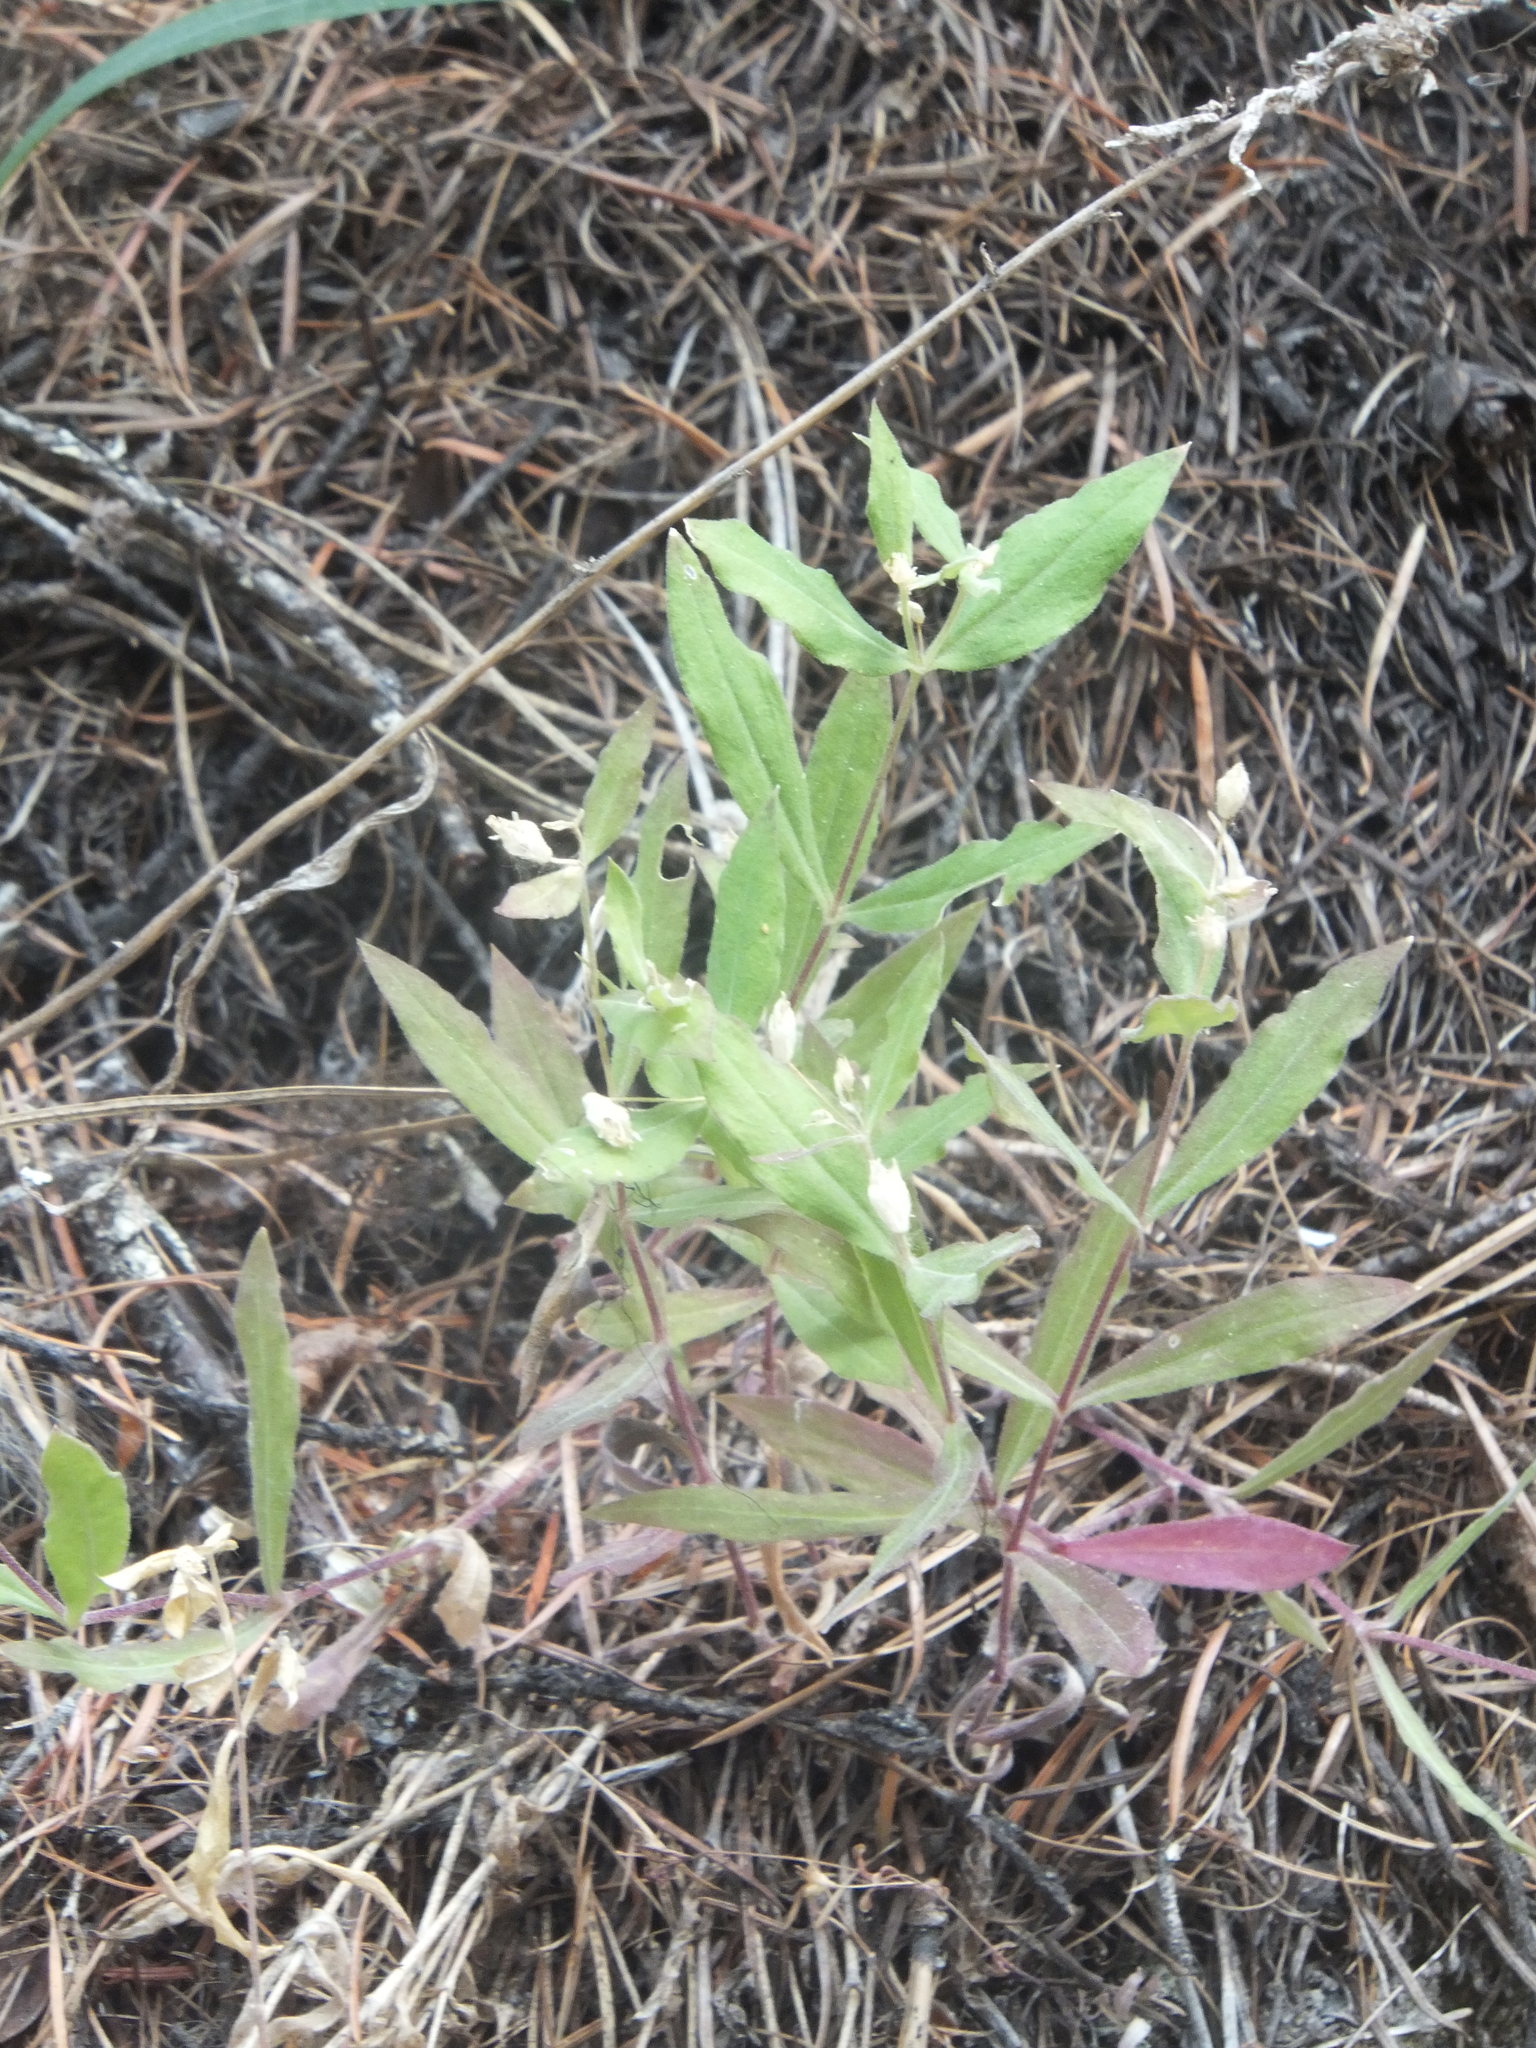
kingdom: Plantae
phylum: Tracheophyta
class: Magnoliopsida
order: Caryophyllales
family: Caryophyllaceae
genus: Silene
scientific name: Silene menziesii
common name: Menzies's catchfly
